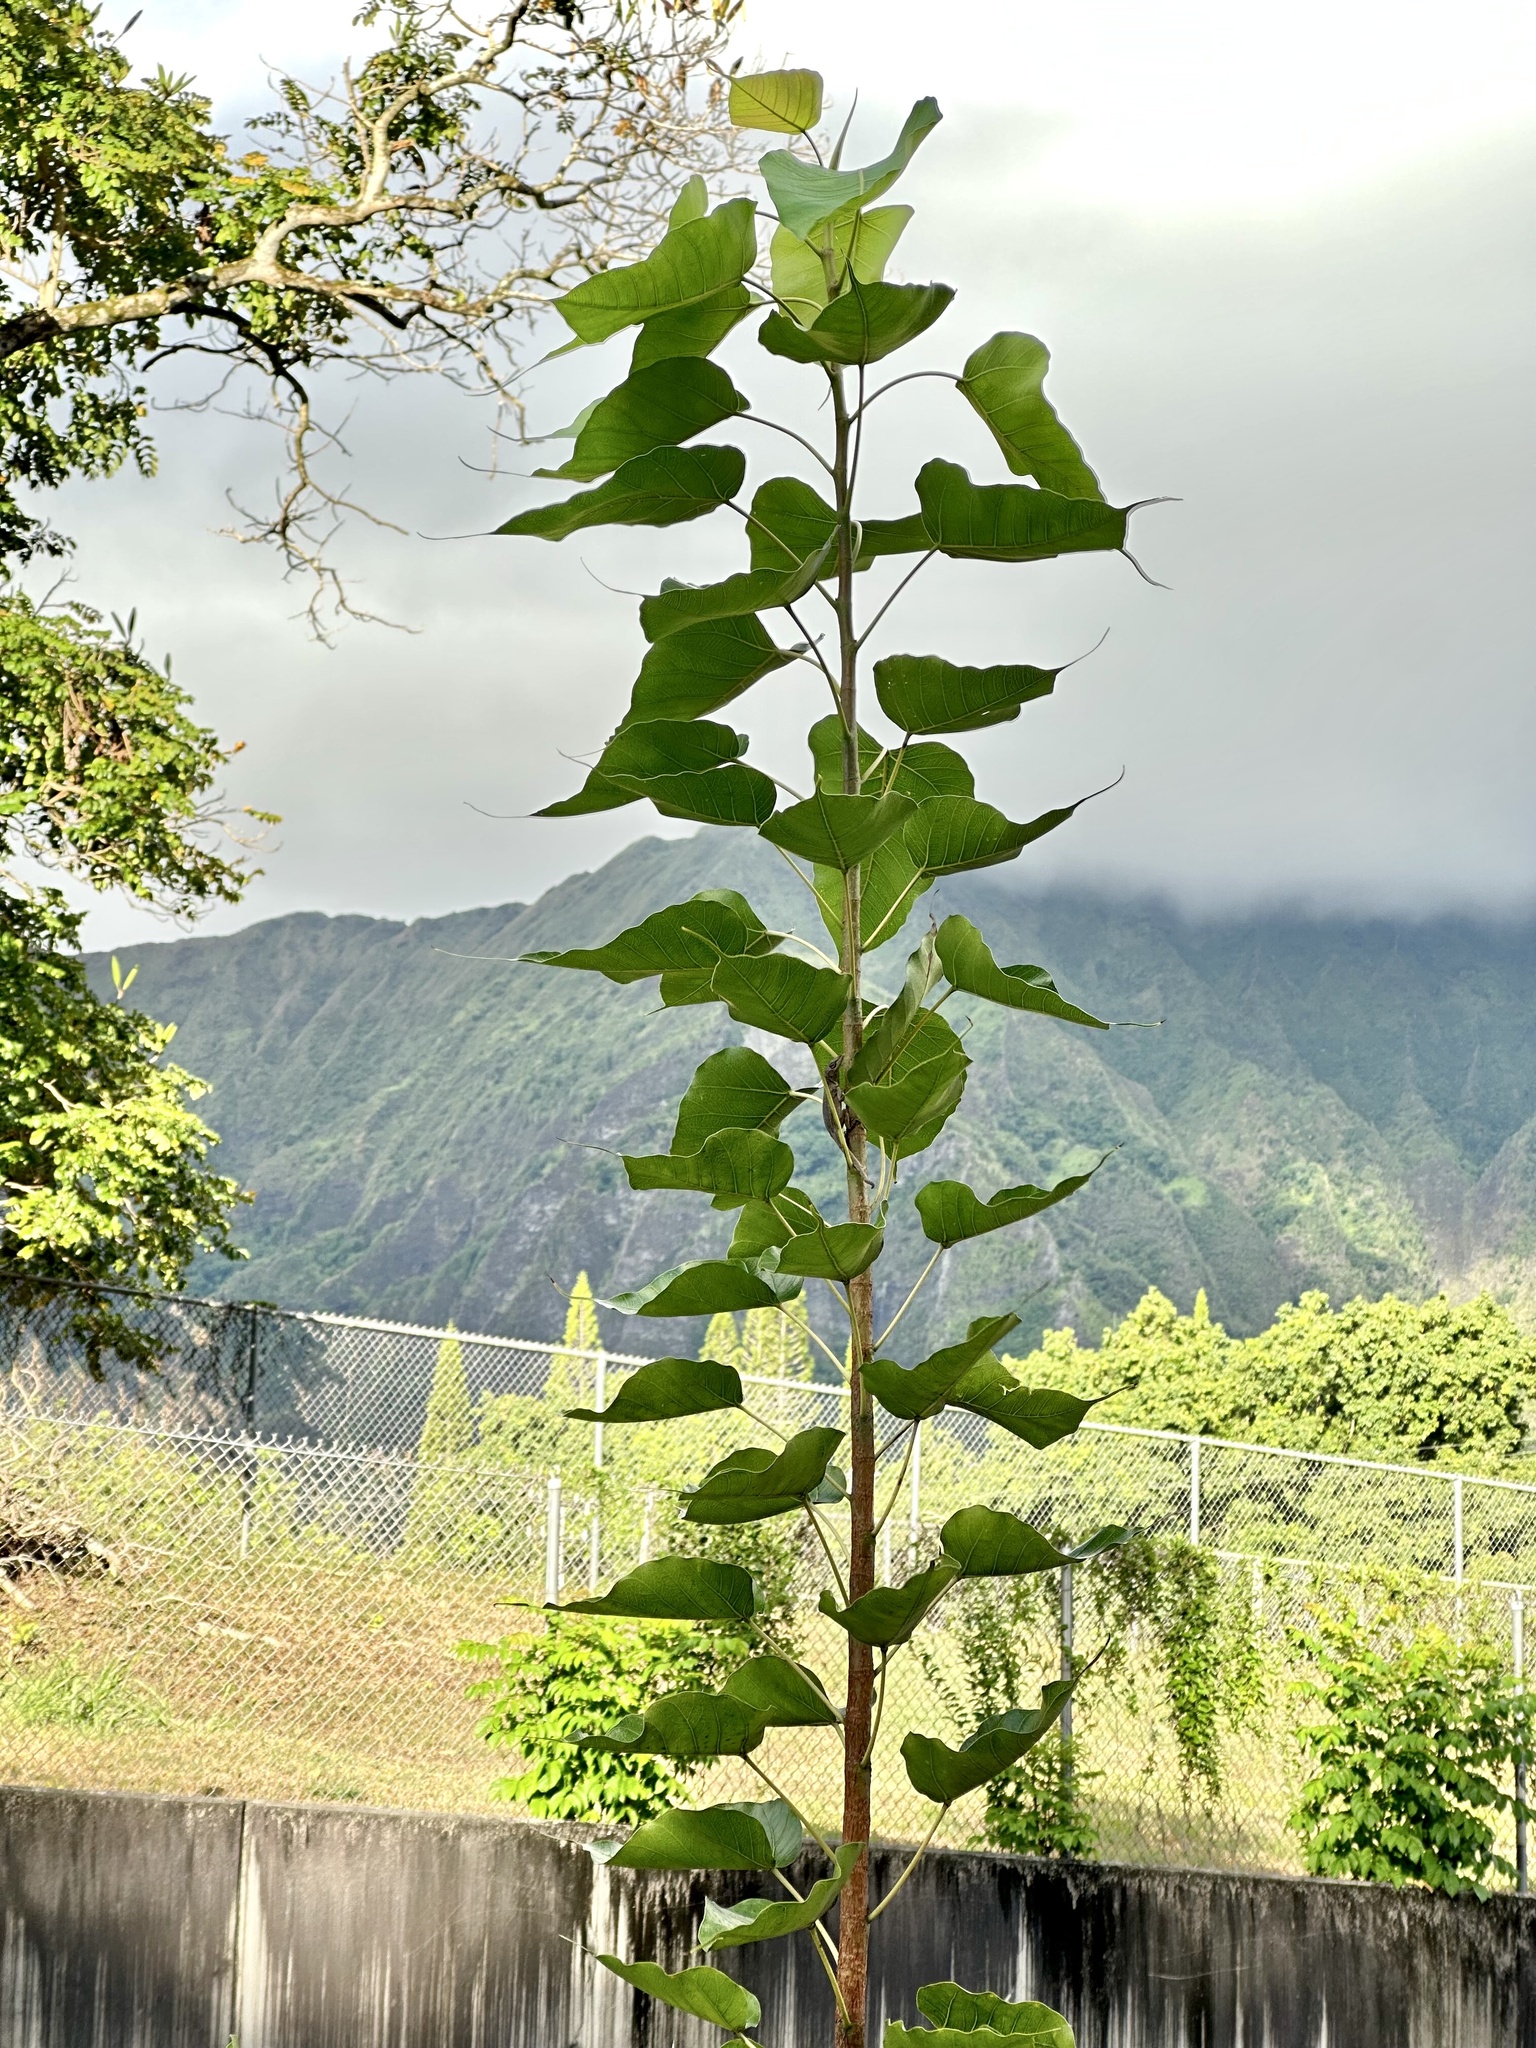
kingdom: Plantae
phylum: Tracheophyta
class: Magnoliopsida
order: Rosales
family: Moraceae
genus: Ficus
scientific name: Ficus religiosa
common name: Bodhi tree
